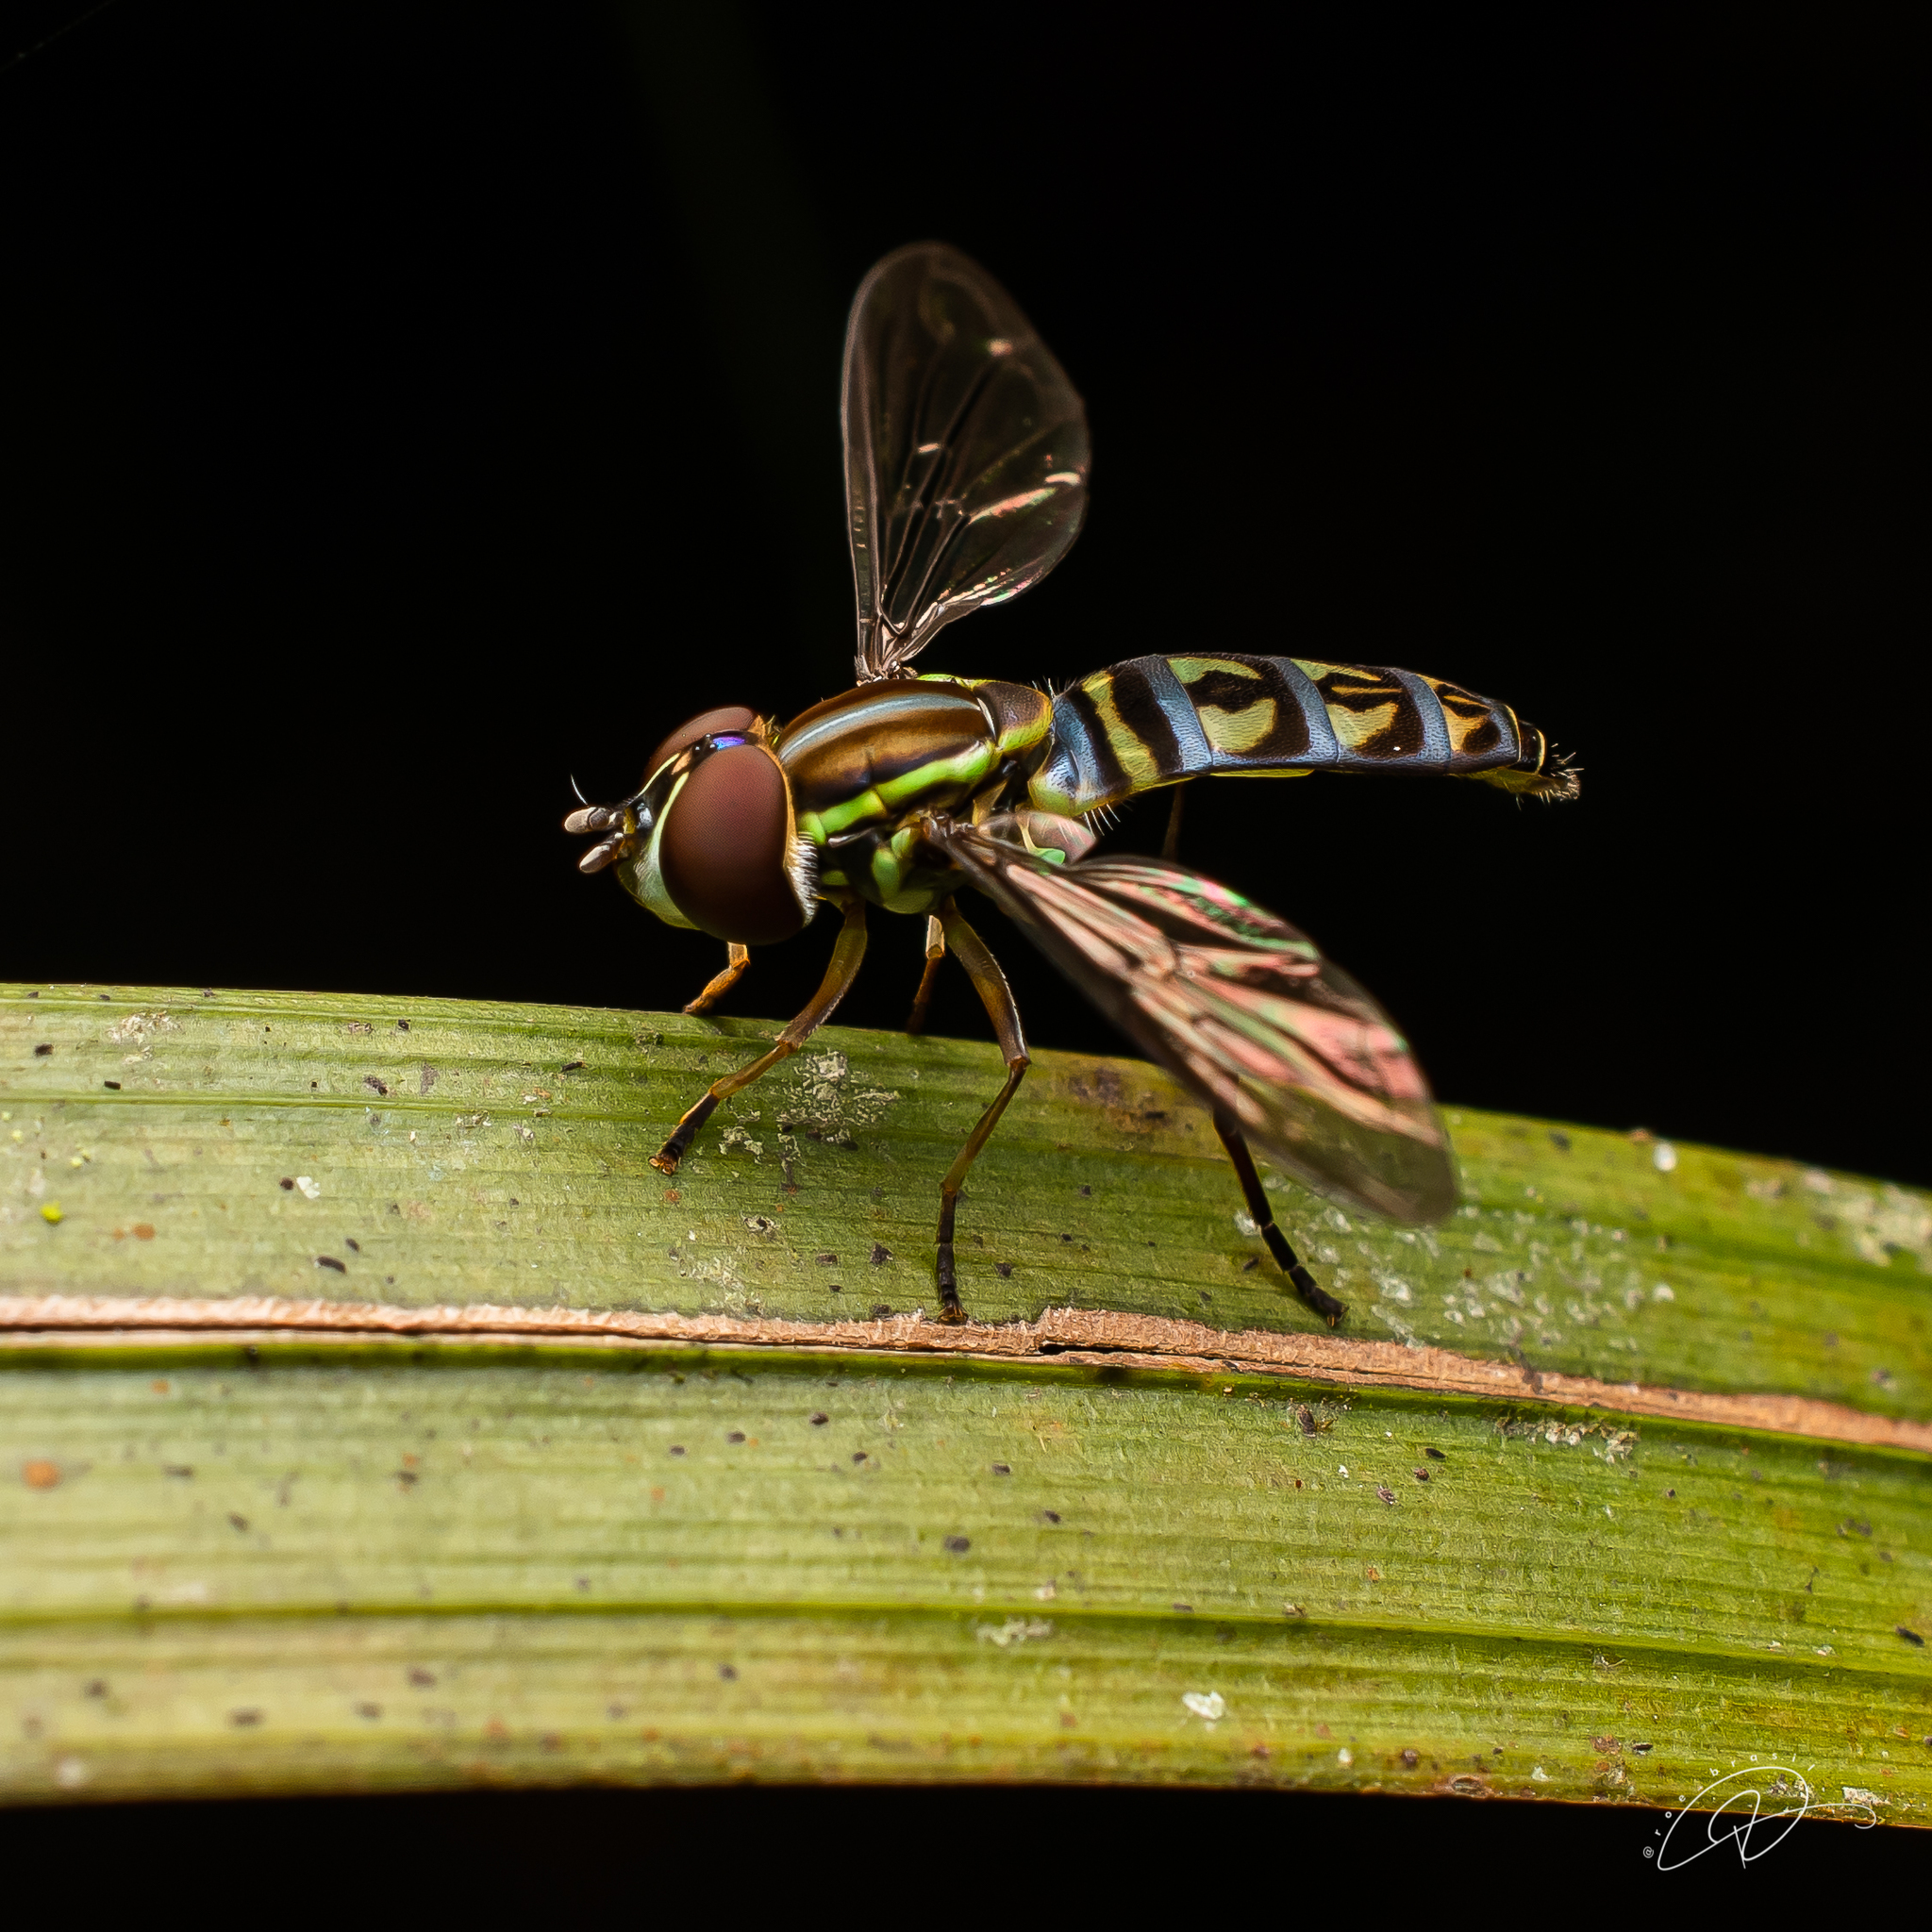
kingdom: Animalia
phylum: Arthropoda
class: Insecta
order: Diptera
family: Syrphidae
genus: Toxomerus
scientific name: Toxomerus tibicen
